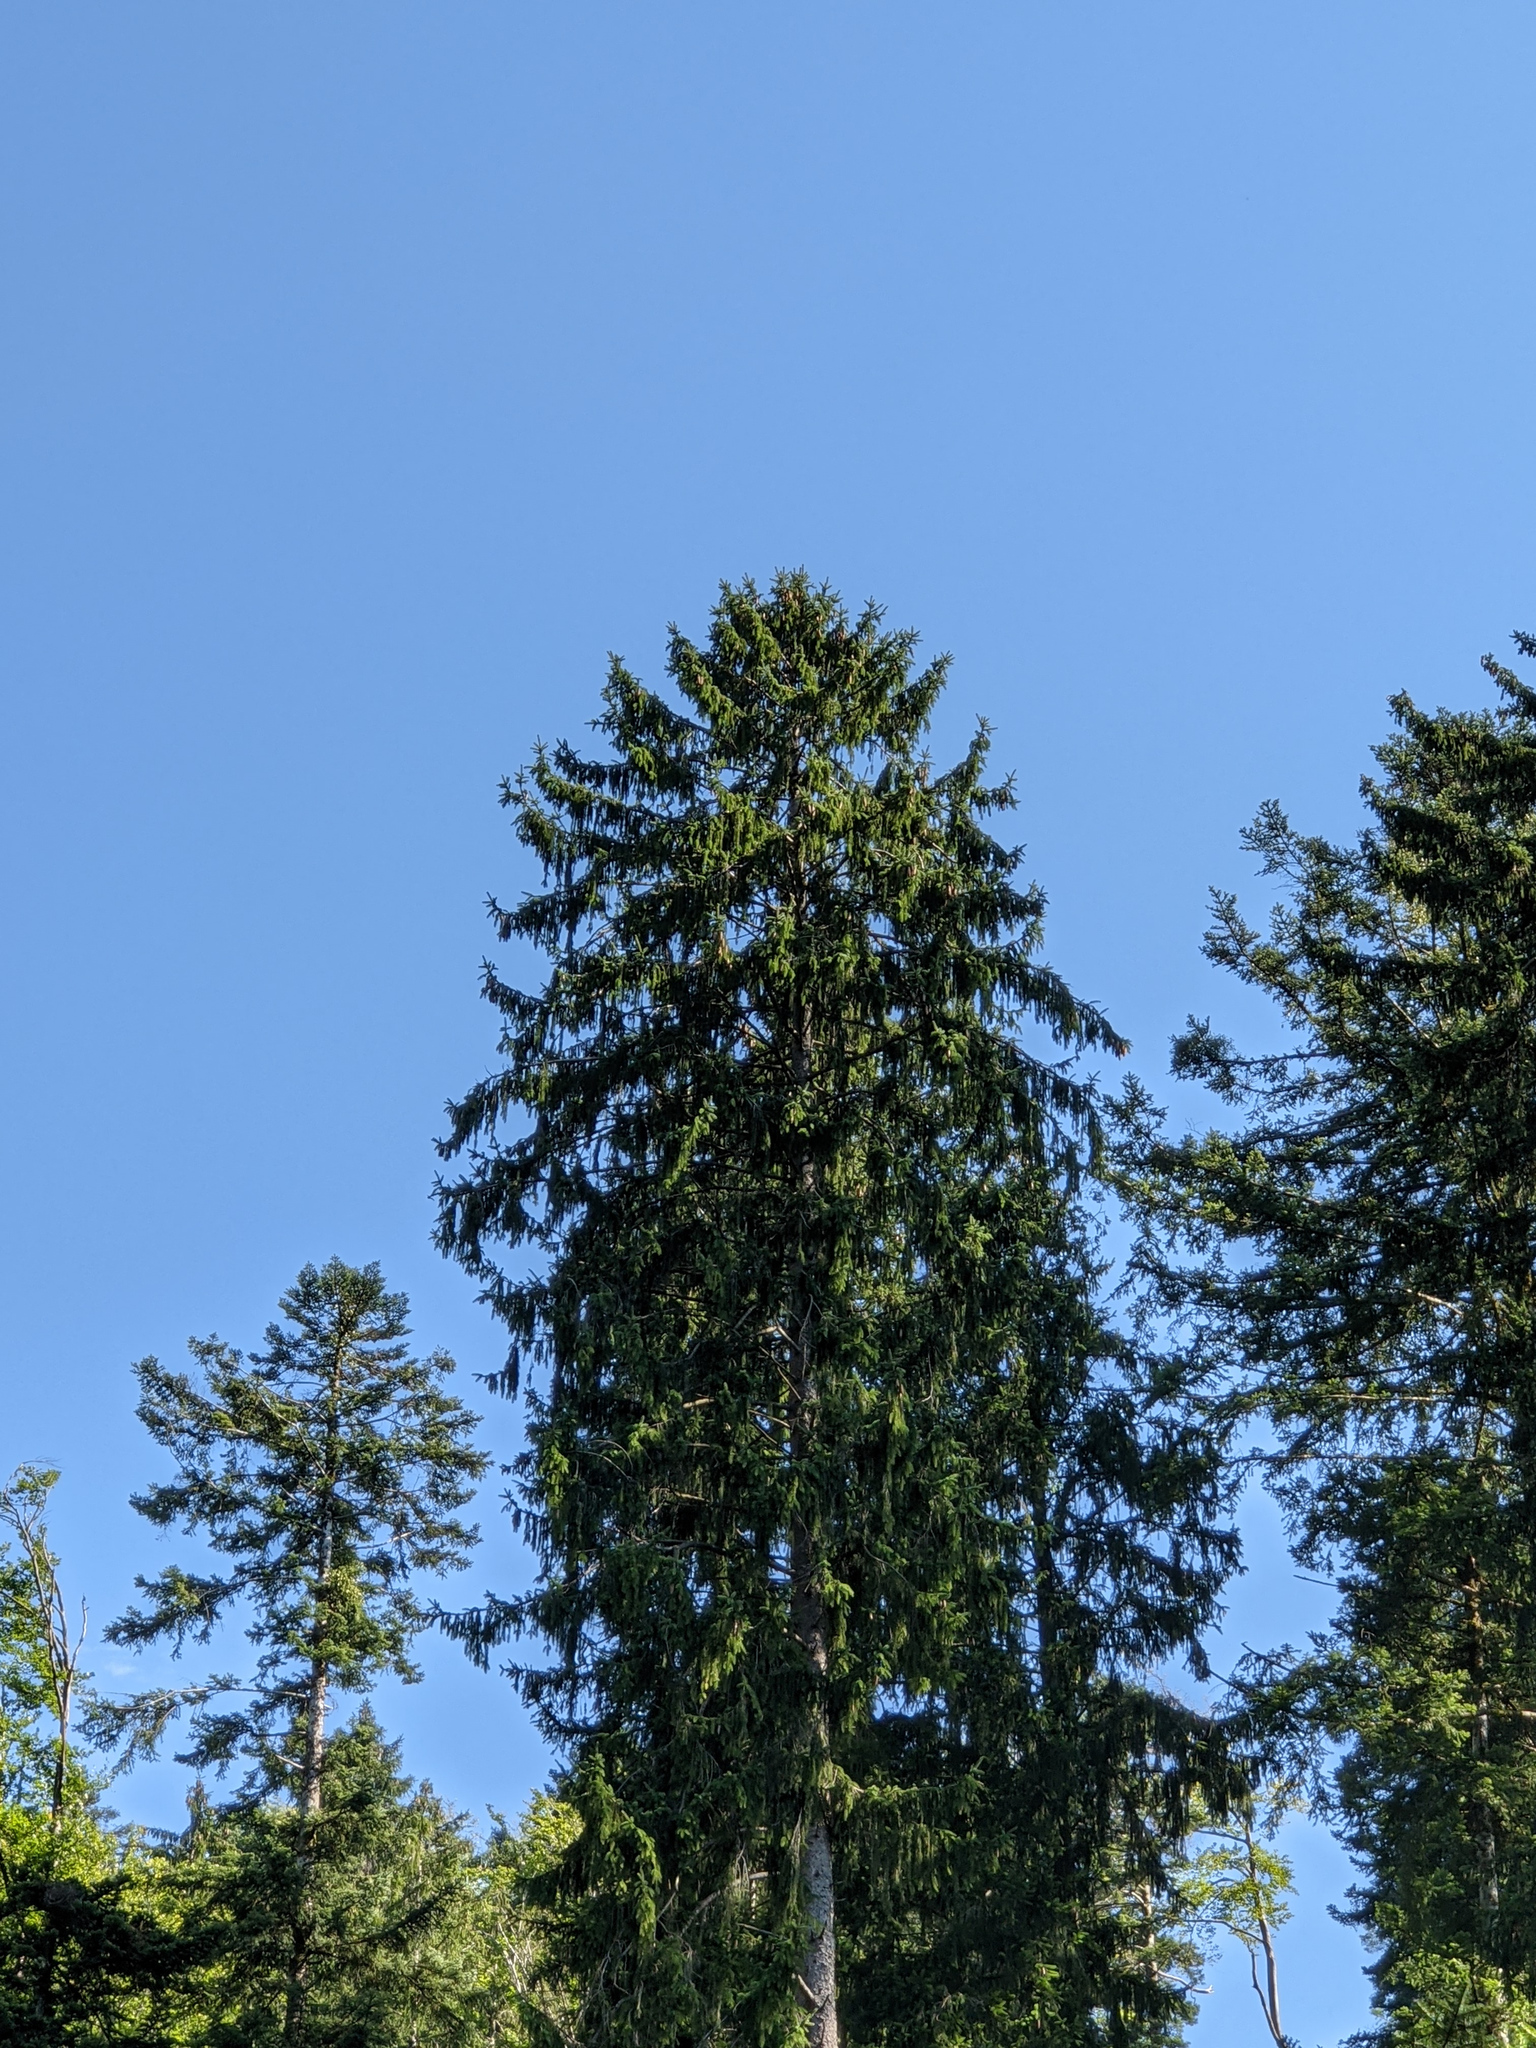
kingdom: Plantae
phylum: Tracheophyta
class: Pinopsida
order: Pinales
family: Pinaceae
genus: Picea
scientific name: Picea abies
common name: Norway spruce
